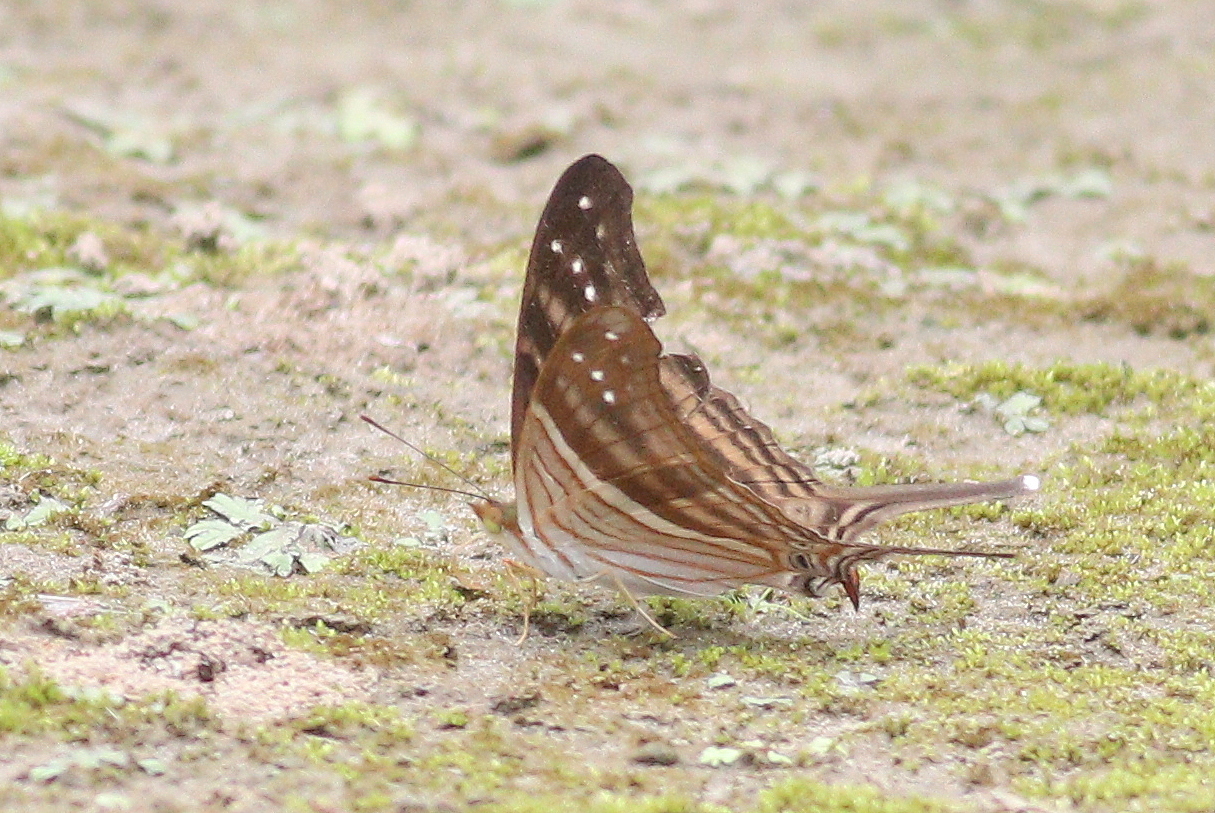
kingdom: Animalia
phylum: Arthropoda
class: Insecta
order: Lepidoptera
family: Nymphalidae
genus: Marpesia
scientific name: Marpesia chiron
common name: Many-banded daggerwing
